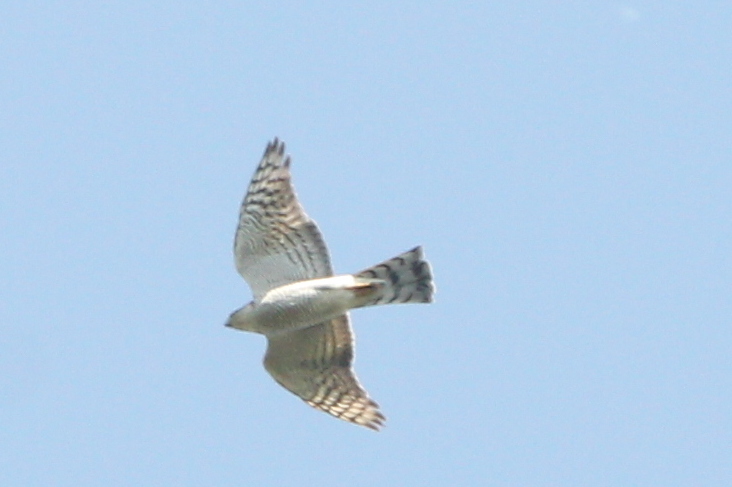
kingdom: Animalia
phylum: Chordata
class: Aves
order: Accipitriformes
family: Accipitridae
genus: Accipiter
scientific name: Accipiter nisus
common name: Eurasian sparrowhawk
